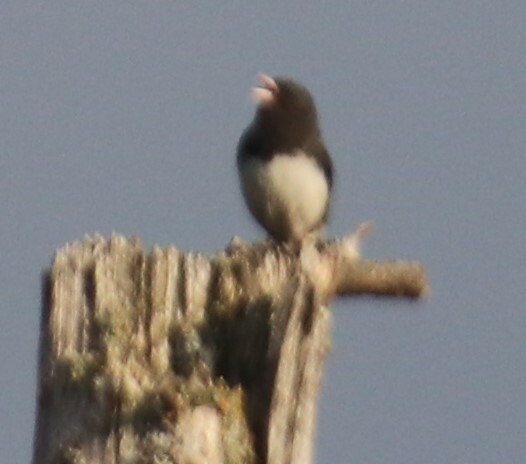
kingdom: Animalia
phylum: Chordata
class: Aves
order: Passeriformes
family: Passerellidae
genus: Junco
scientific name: Junco hyemalis
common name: Dark-eyed junco
